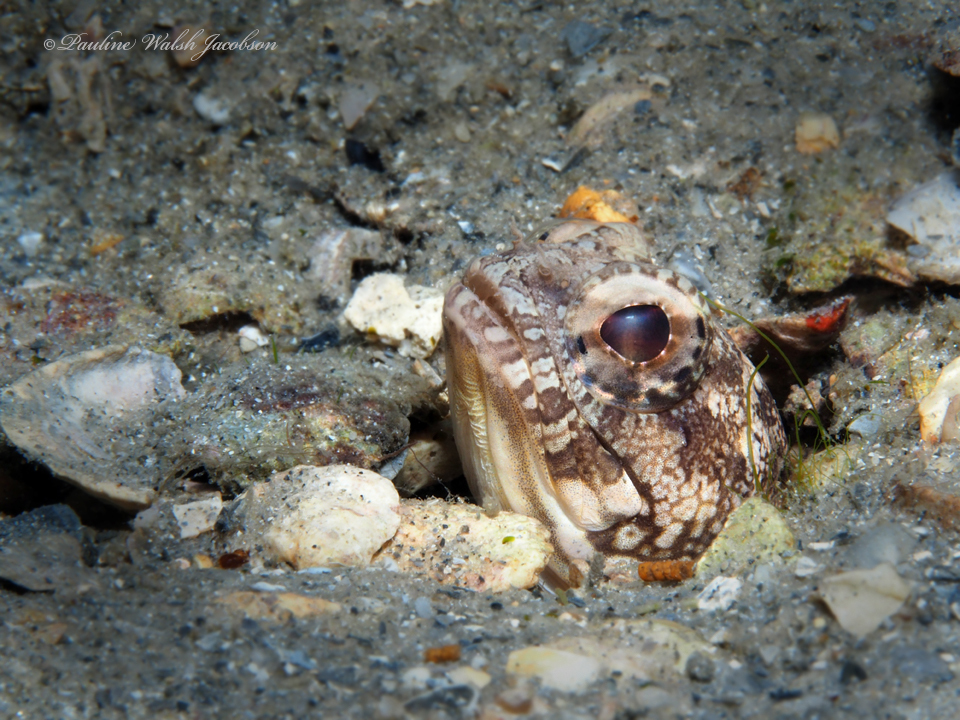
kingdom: Animalia
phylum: Chordata
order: Perciformes
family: Opistognathidae
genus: Opistognathus
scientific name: Opistognathus robinsi
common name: Spotfin jawfish
